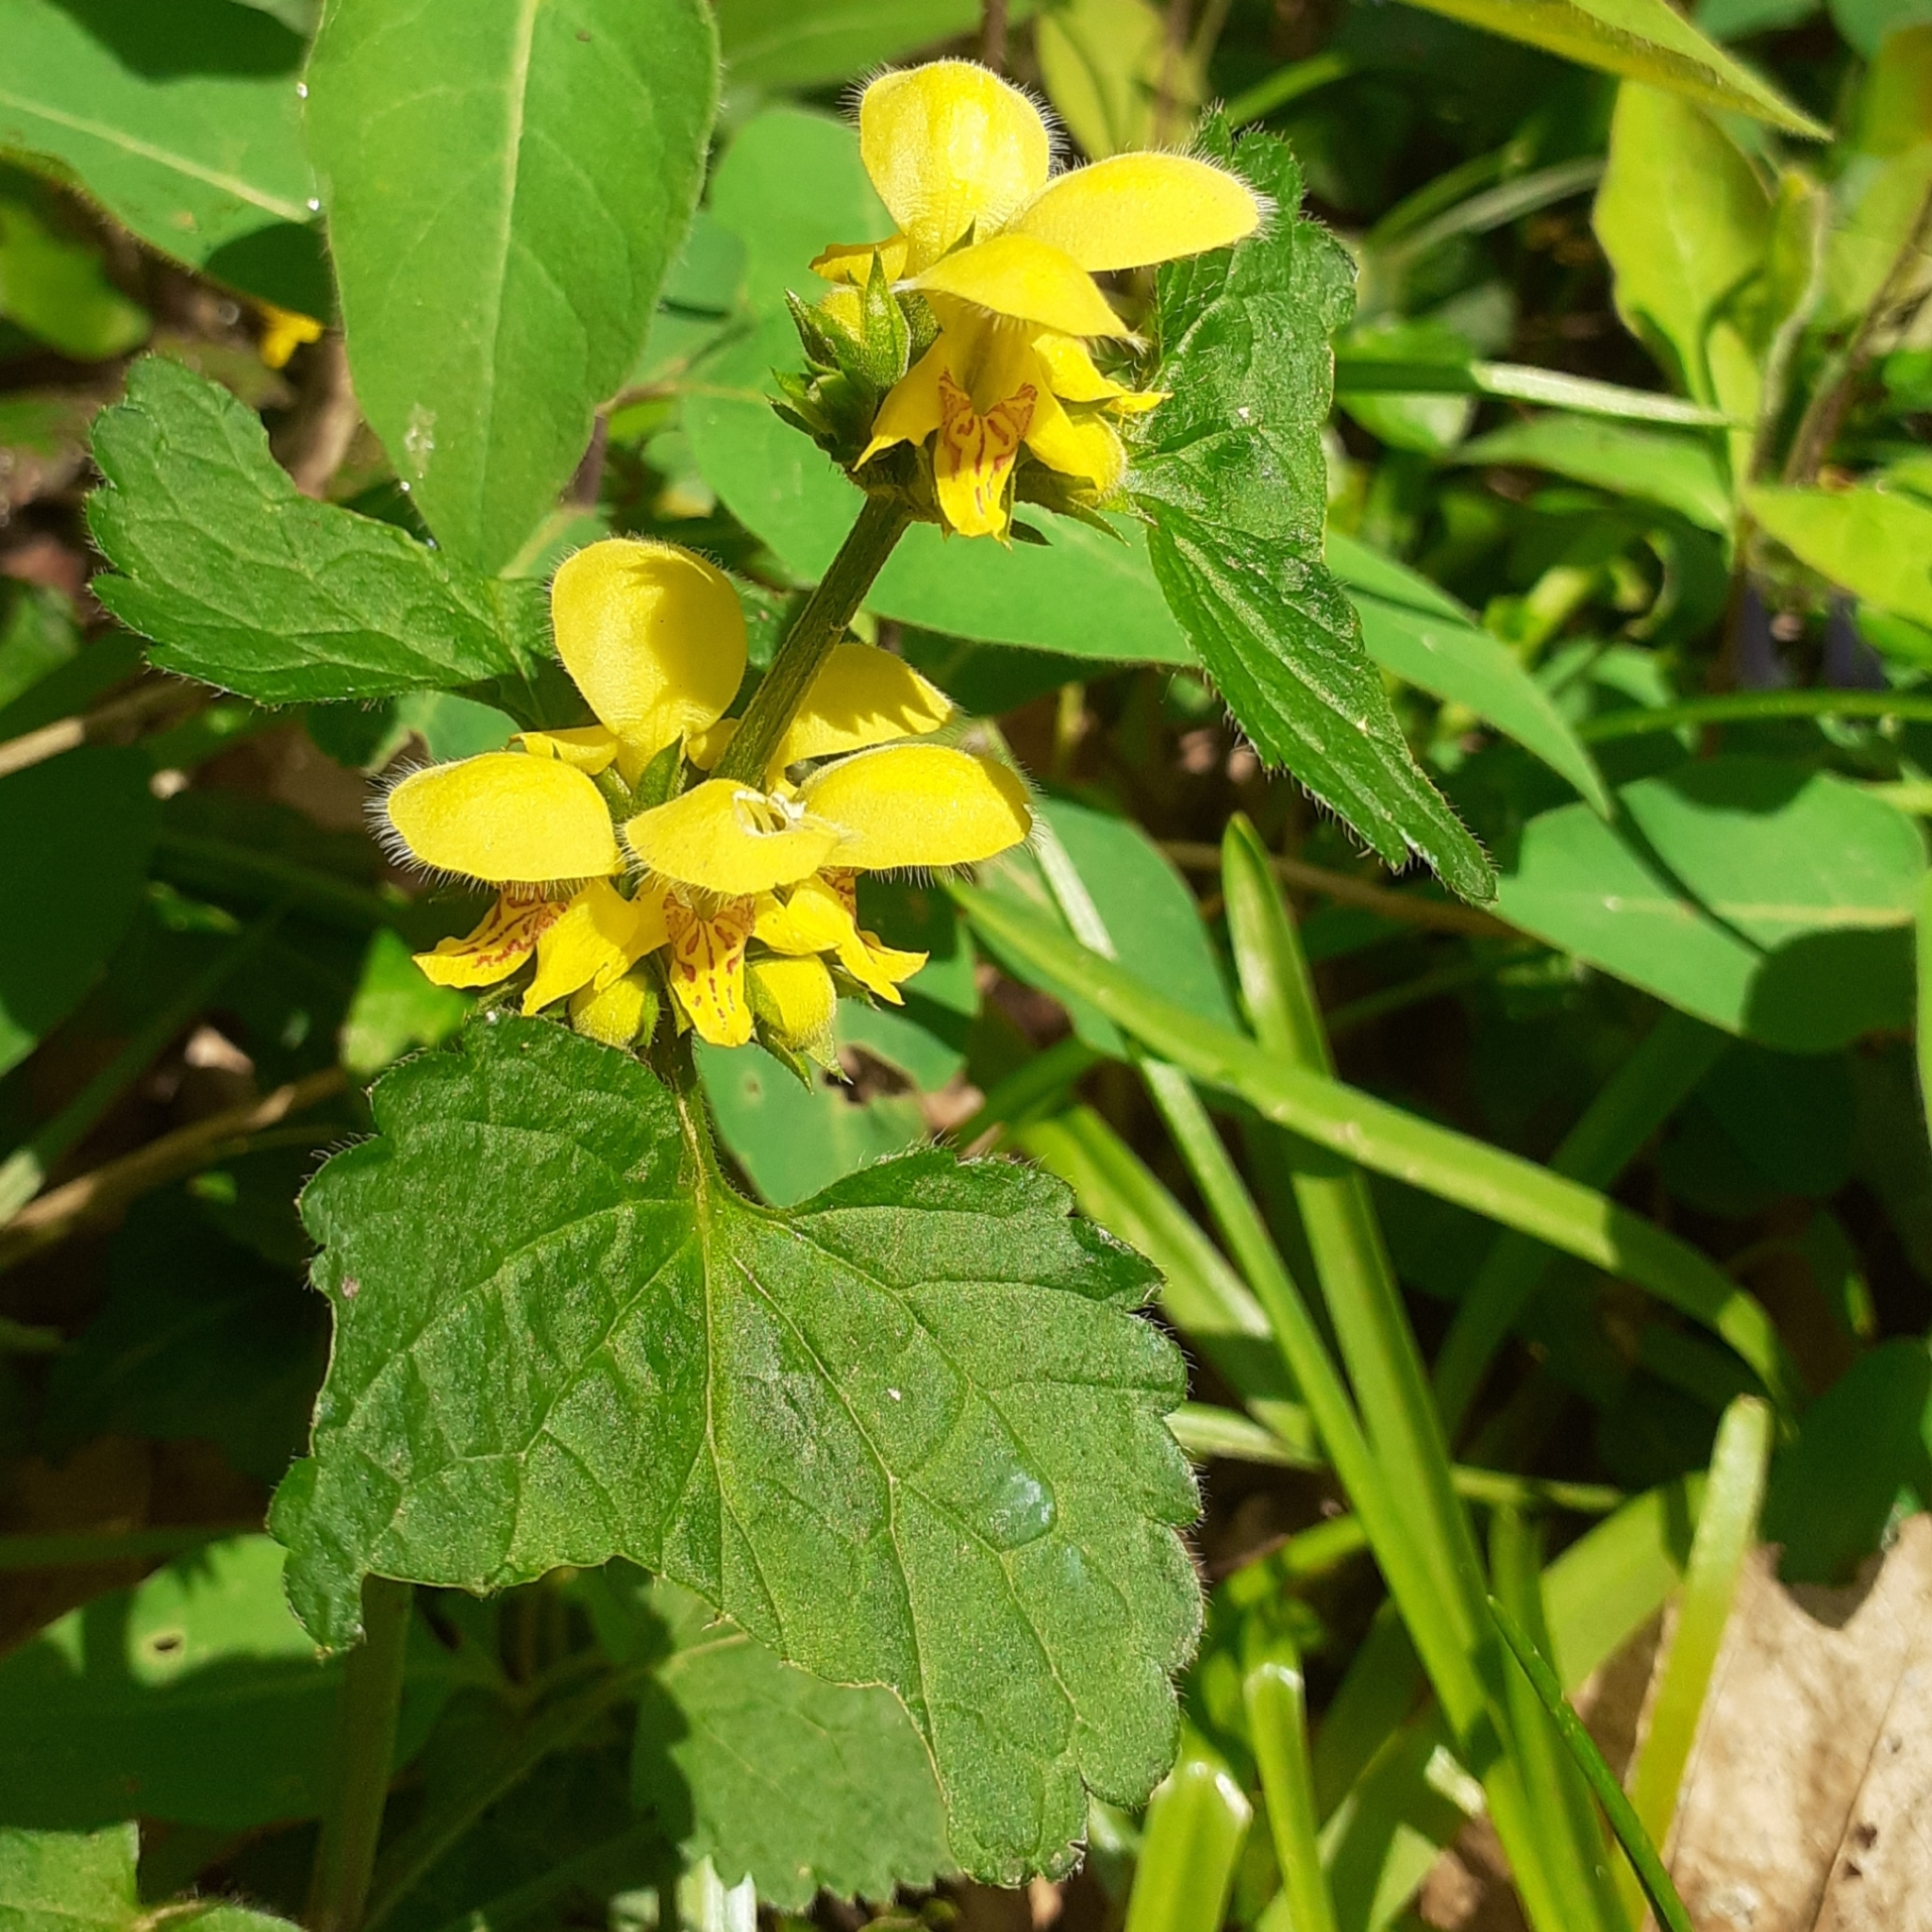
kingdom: Plantae
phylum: Tracheophyta
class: Magnoliopsida
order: Lamiales
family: Lamiaceae
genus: Lamium
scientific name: Lamium galeobdolon
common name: Yellow archangel
